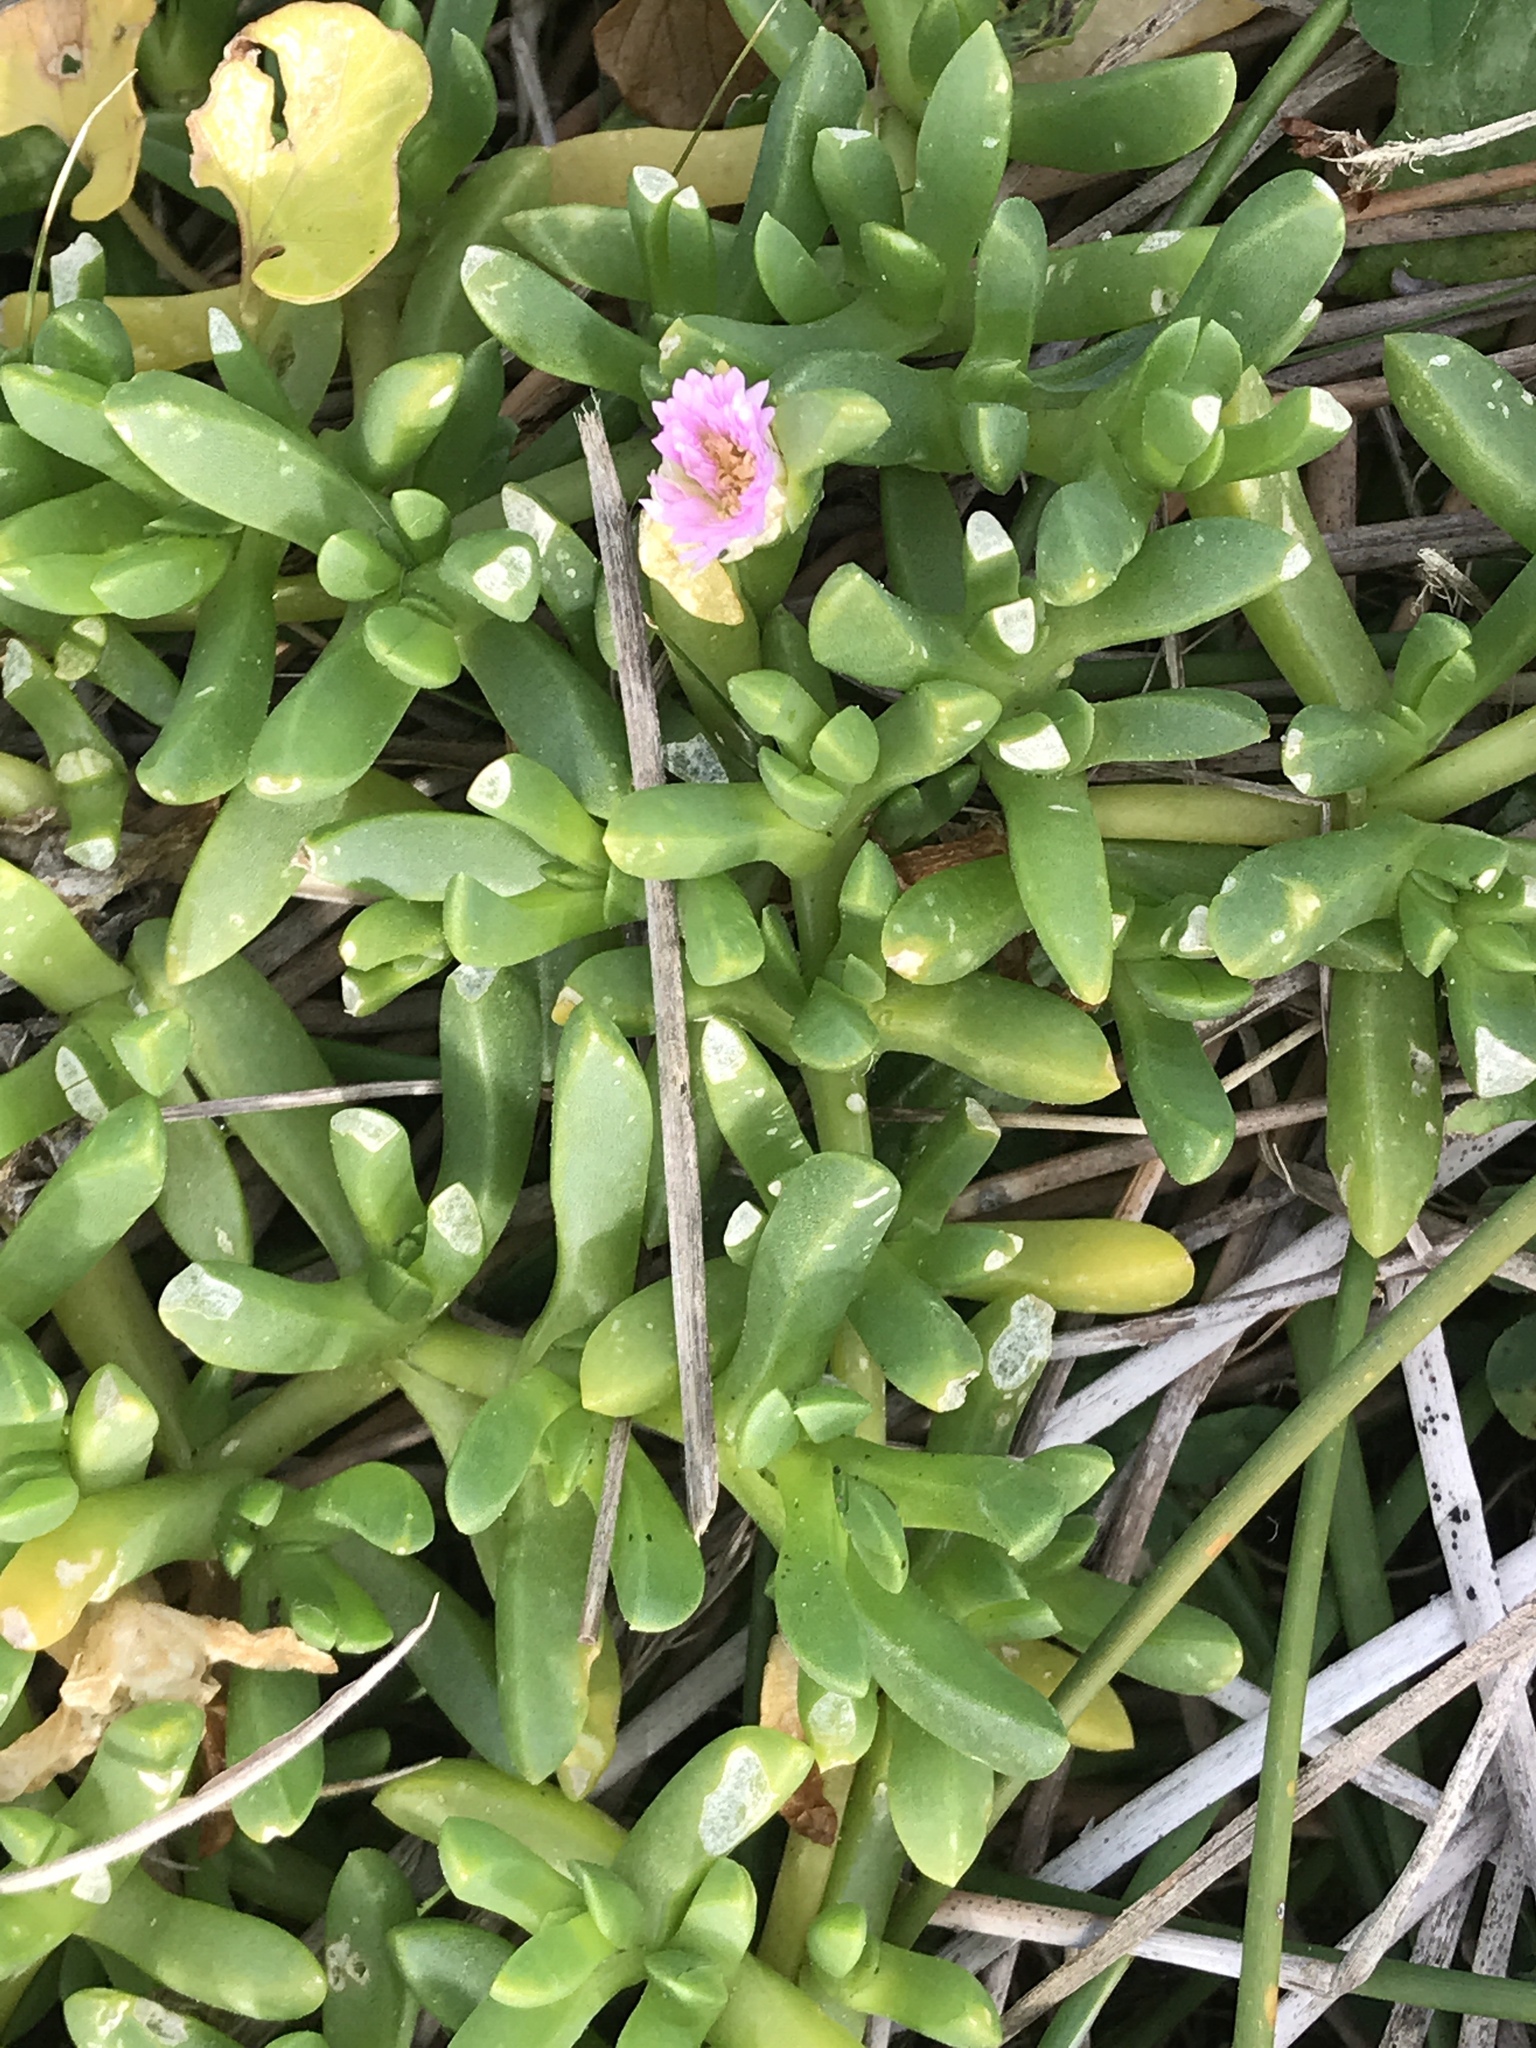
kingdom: Plantae
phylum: Tracheophyta
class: Magnoliopsida
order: Caryophyllales
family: Aizoaceae
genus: Disphyma
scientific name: Disphyma australe
